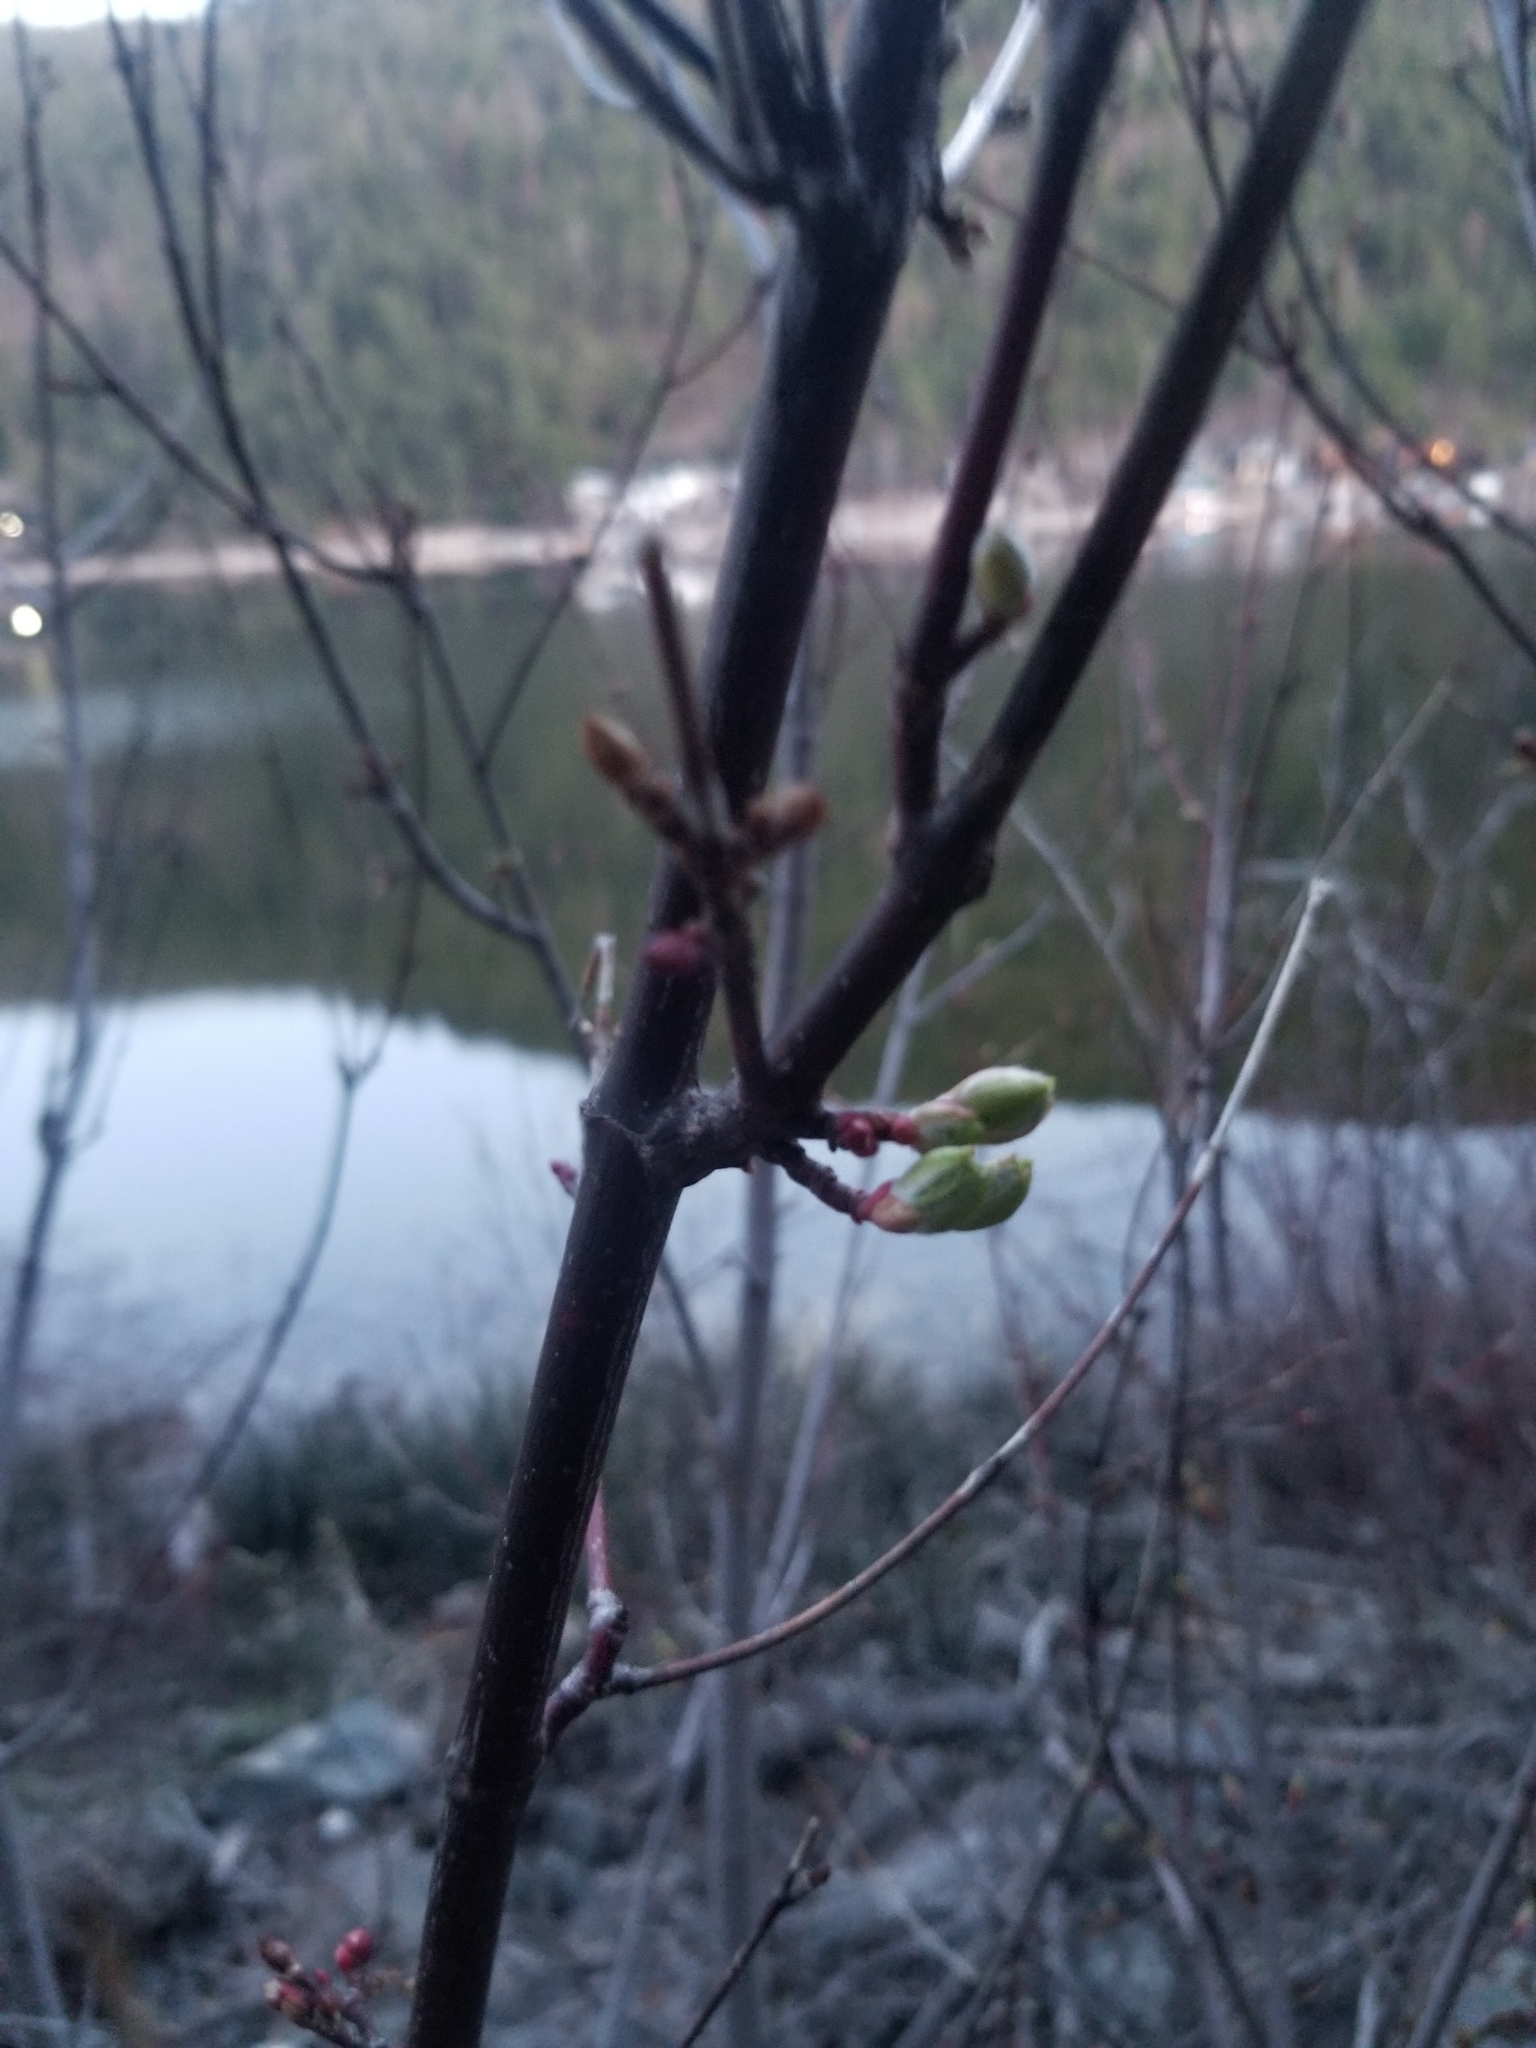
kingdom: Plantae
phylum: Tracheophyta
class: Magnoliopsida
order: Sapindales
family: Sapindaceae
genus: Acer
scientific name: Acer glabrum
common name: Rocky mountain maple
